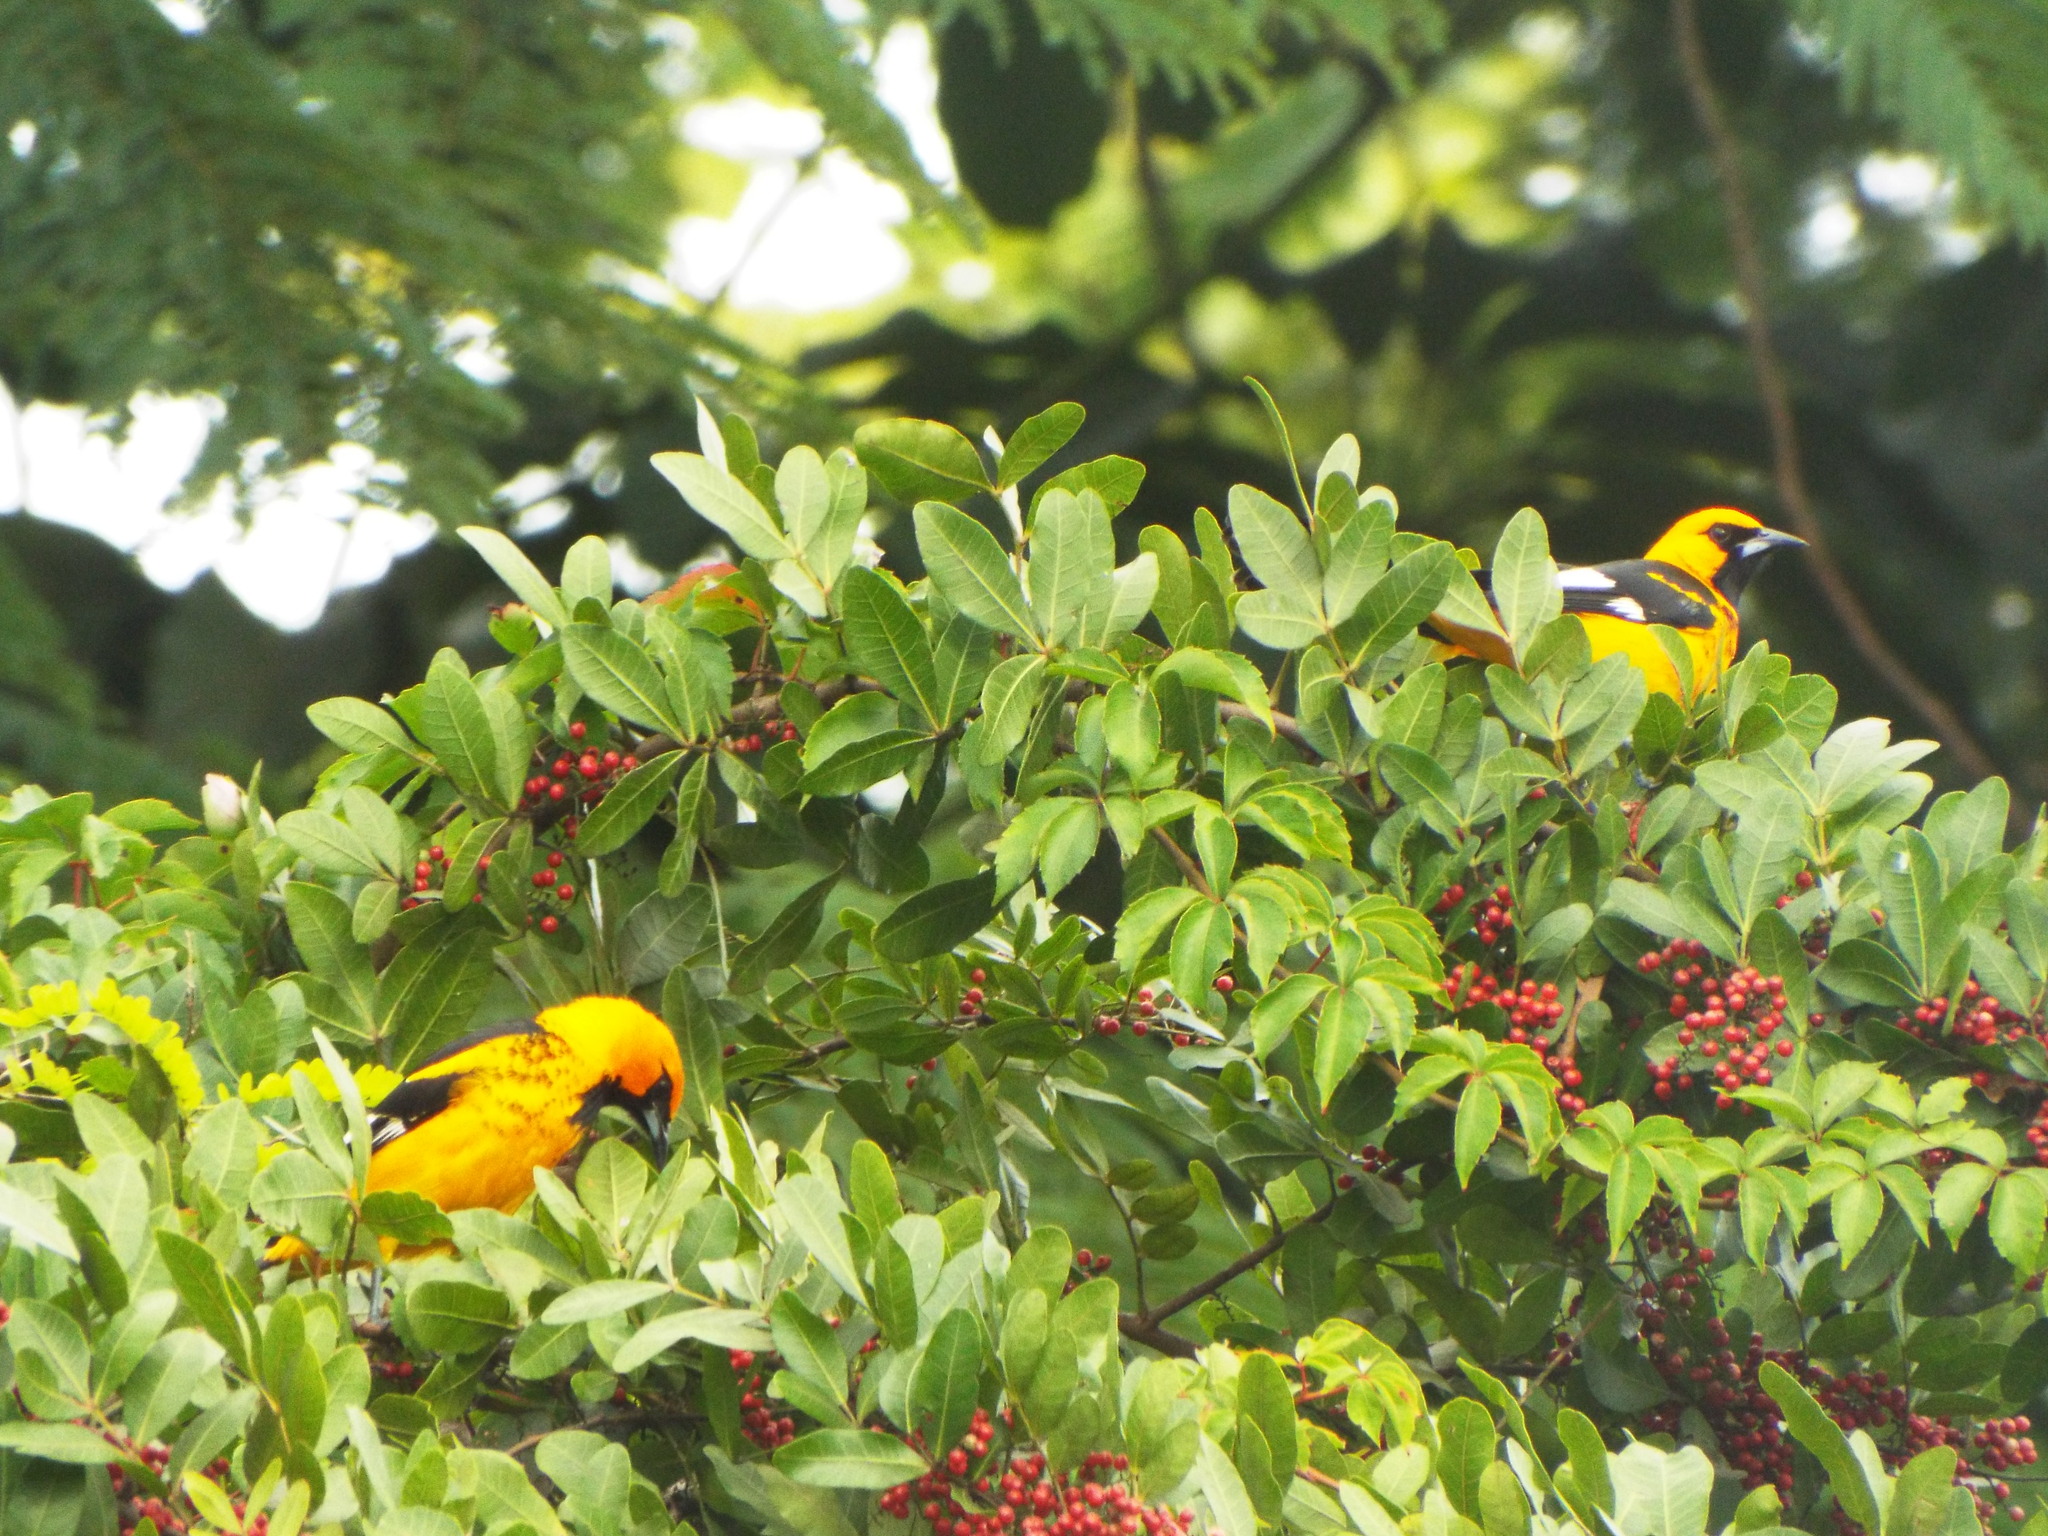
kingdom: Plantae
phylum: Tracheophyta
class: Magnoliopsida
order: Sapindales
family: Anacardiaceae
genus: Schinus
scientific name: Schinus terebinthifolia
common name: Brazilian peppertree
